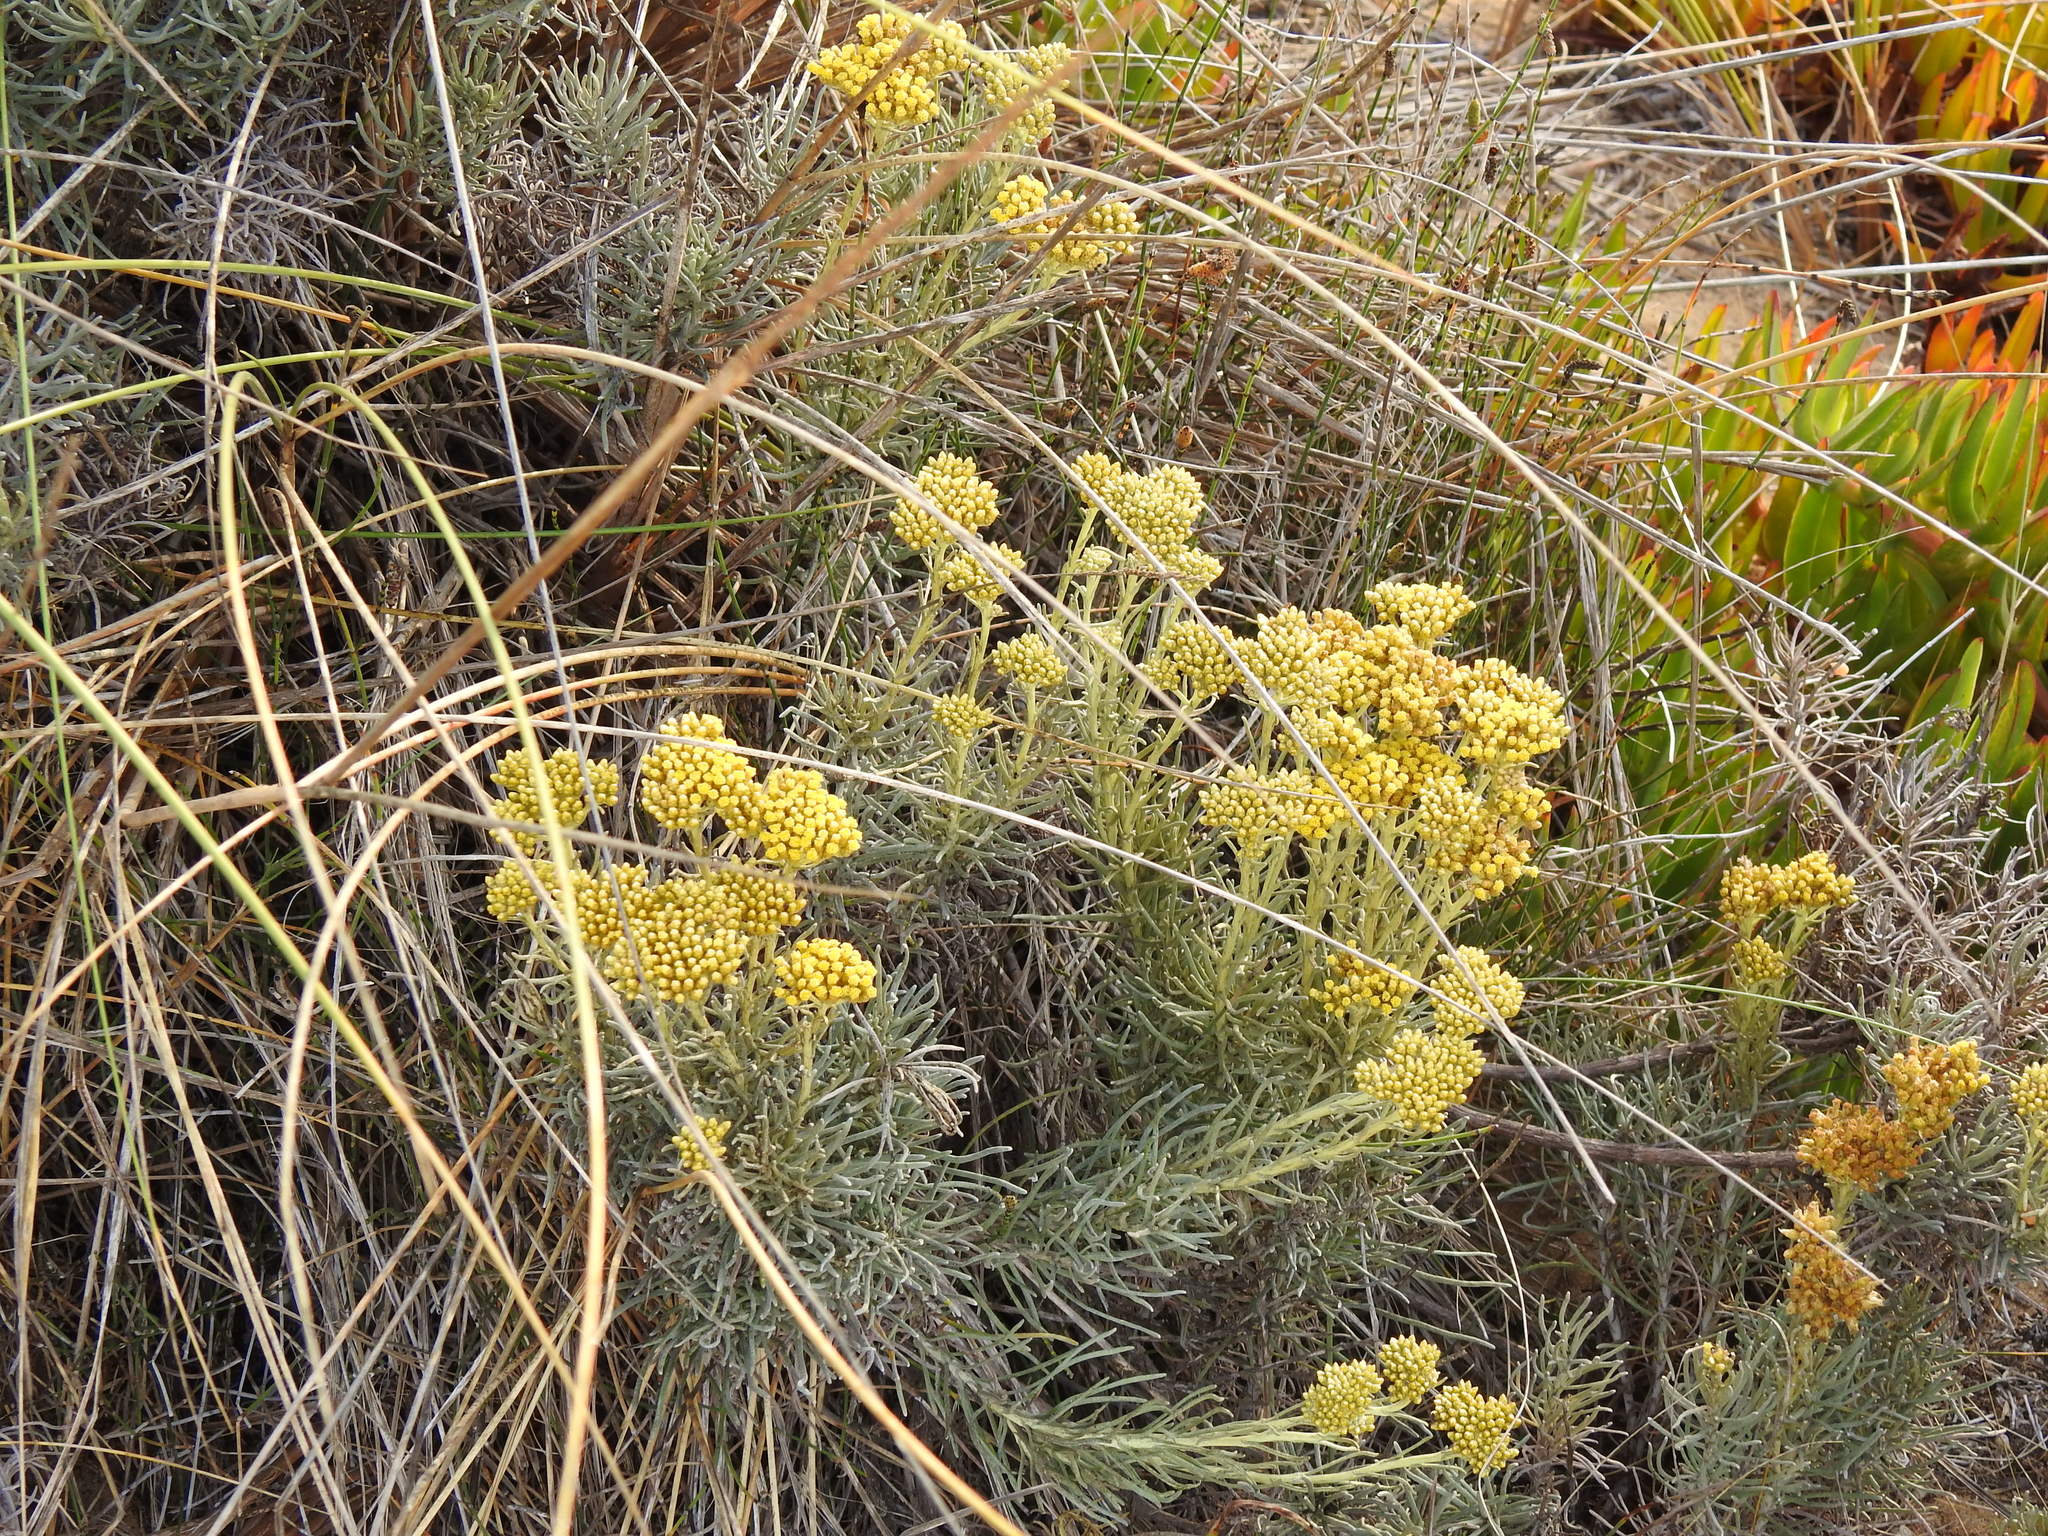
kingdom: Plantae
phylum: Tracheophyta
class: Magnoliopsida
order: Asterales
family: Asteraceae
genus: Helichrysum
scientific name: Helichrysum serotinum
